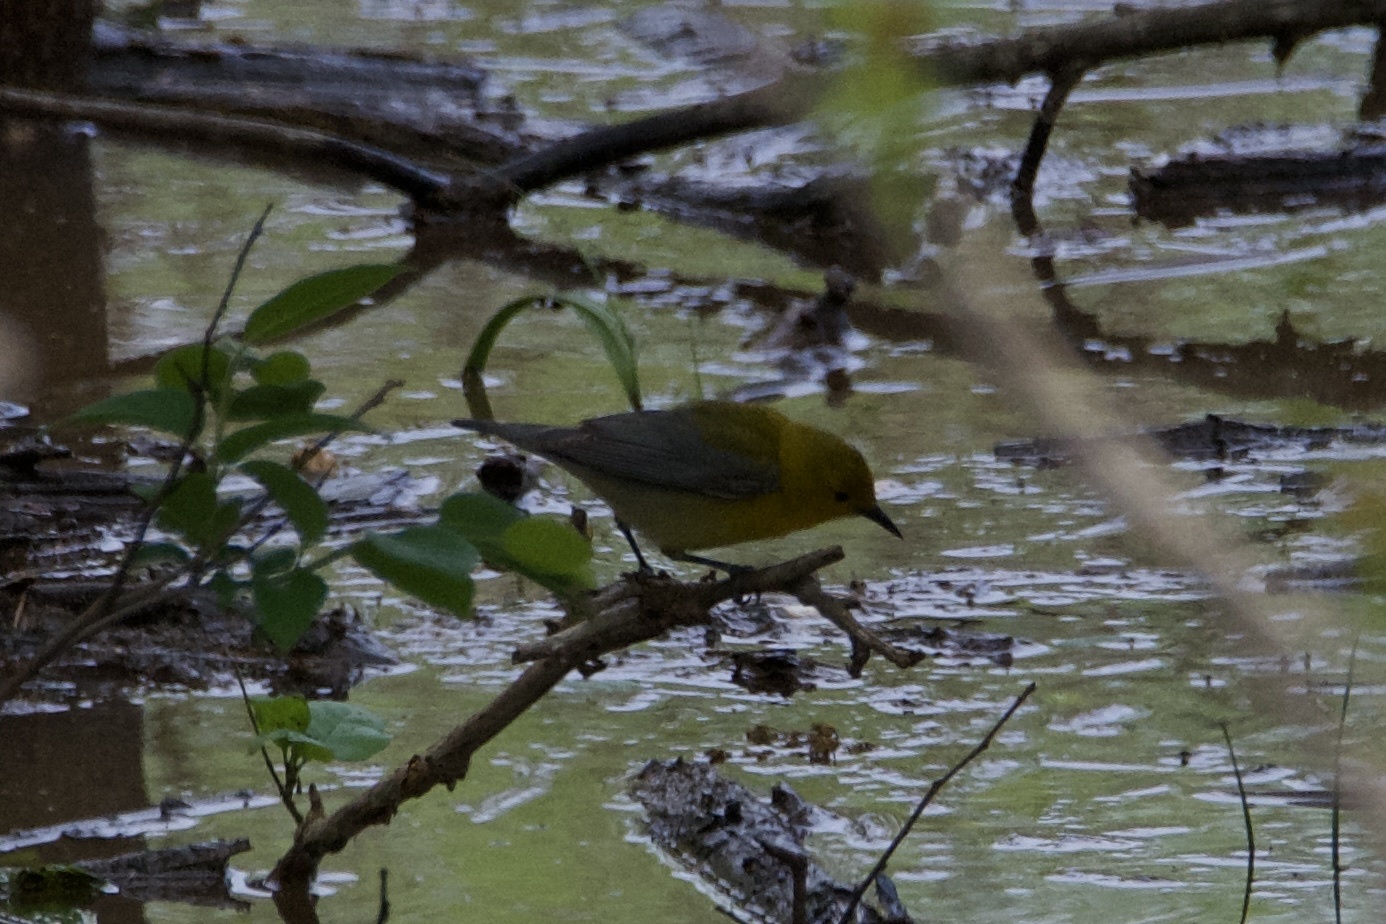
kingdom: Animalia
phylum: Chordata
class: Aves
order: Passeriformes
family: Parulidae
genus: Protonotaria
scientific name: Protonotaria citrea
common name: Prothonotary warbler
